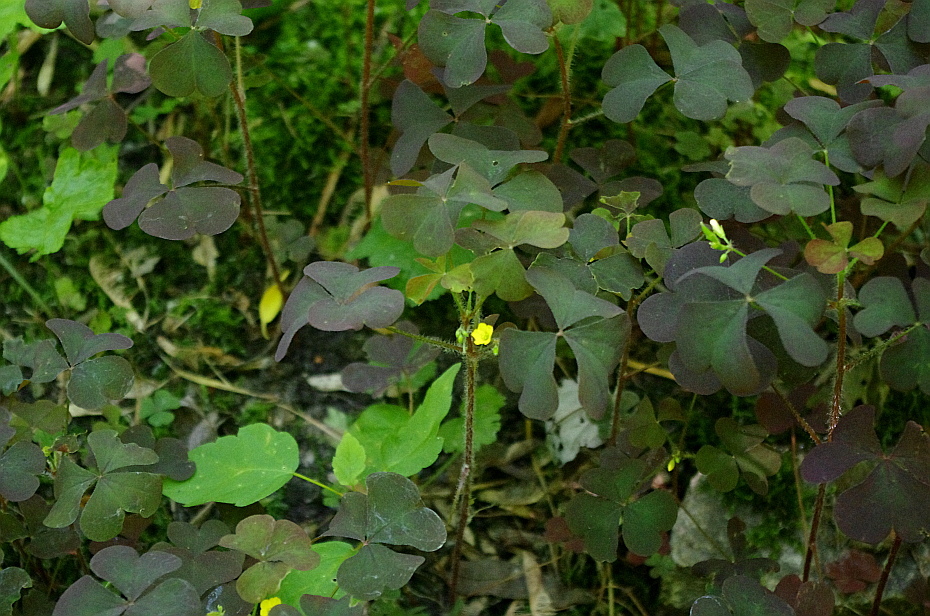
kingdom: Plantae
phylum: Tracheophyta
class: Magnoliopsida
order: Oxalidales
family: Oxalidaceae
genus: Oxalis
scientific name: Oxalis stricta
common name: Upright yellow-sorrel
